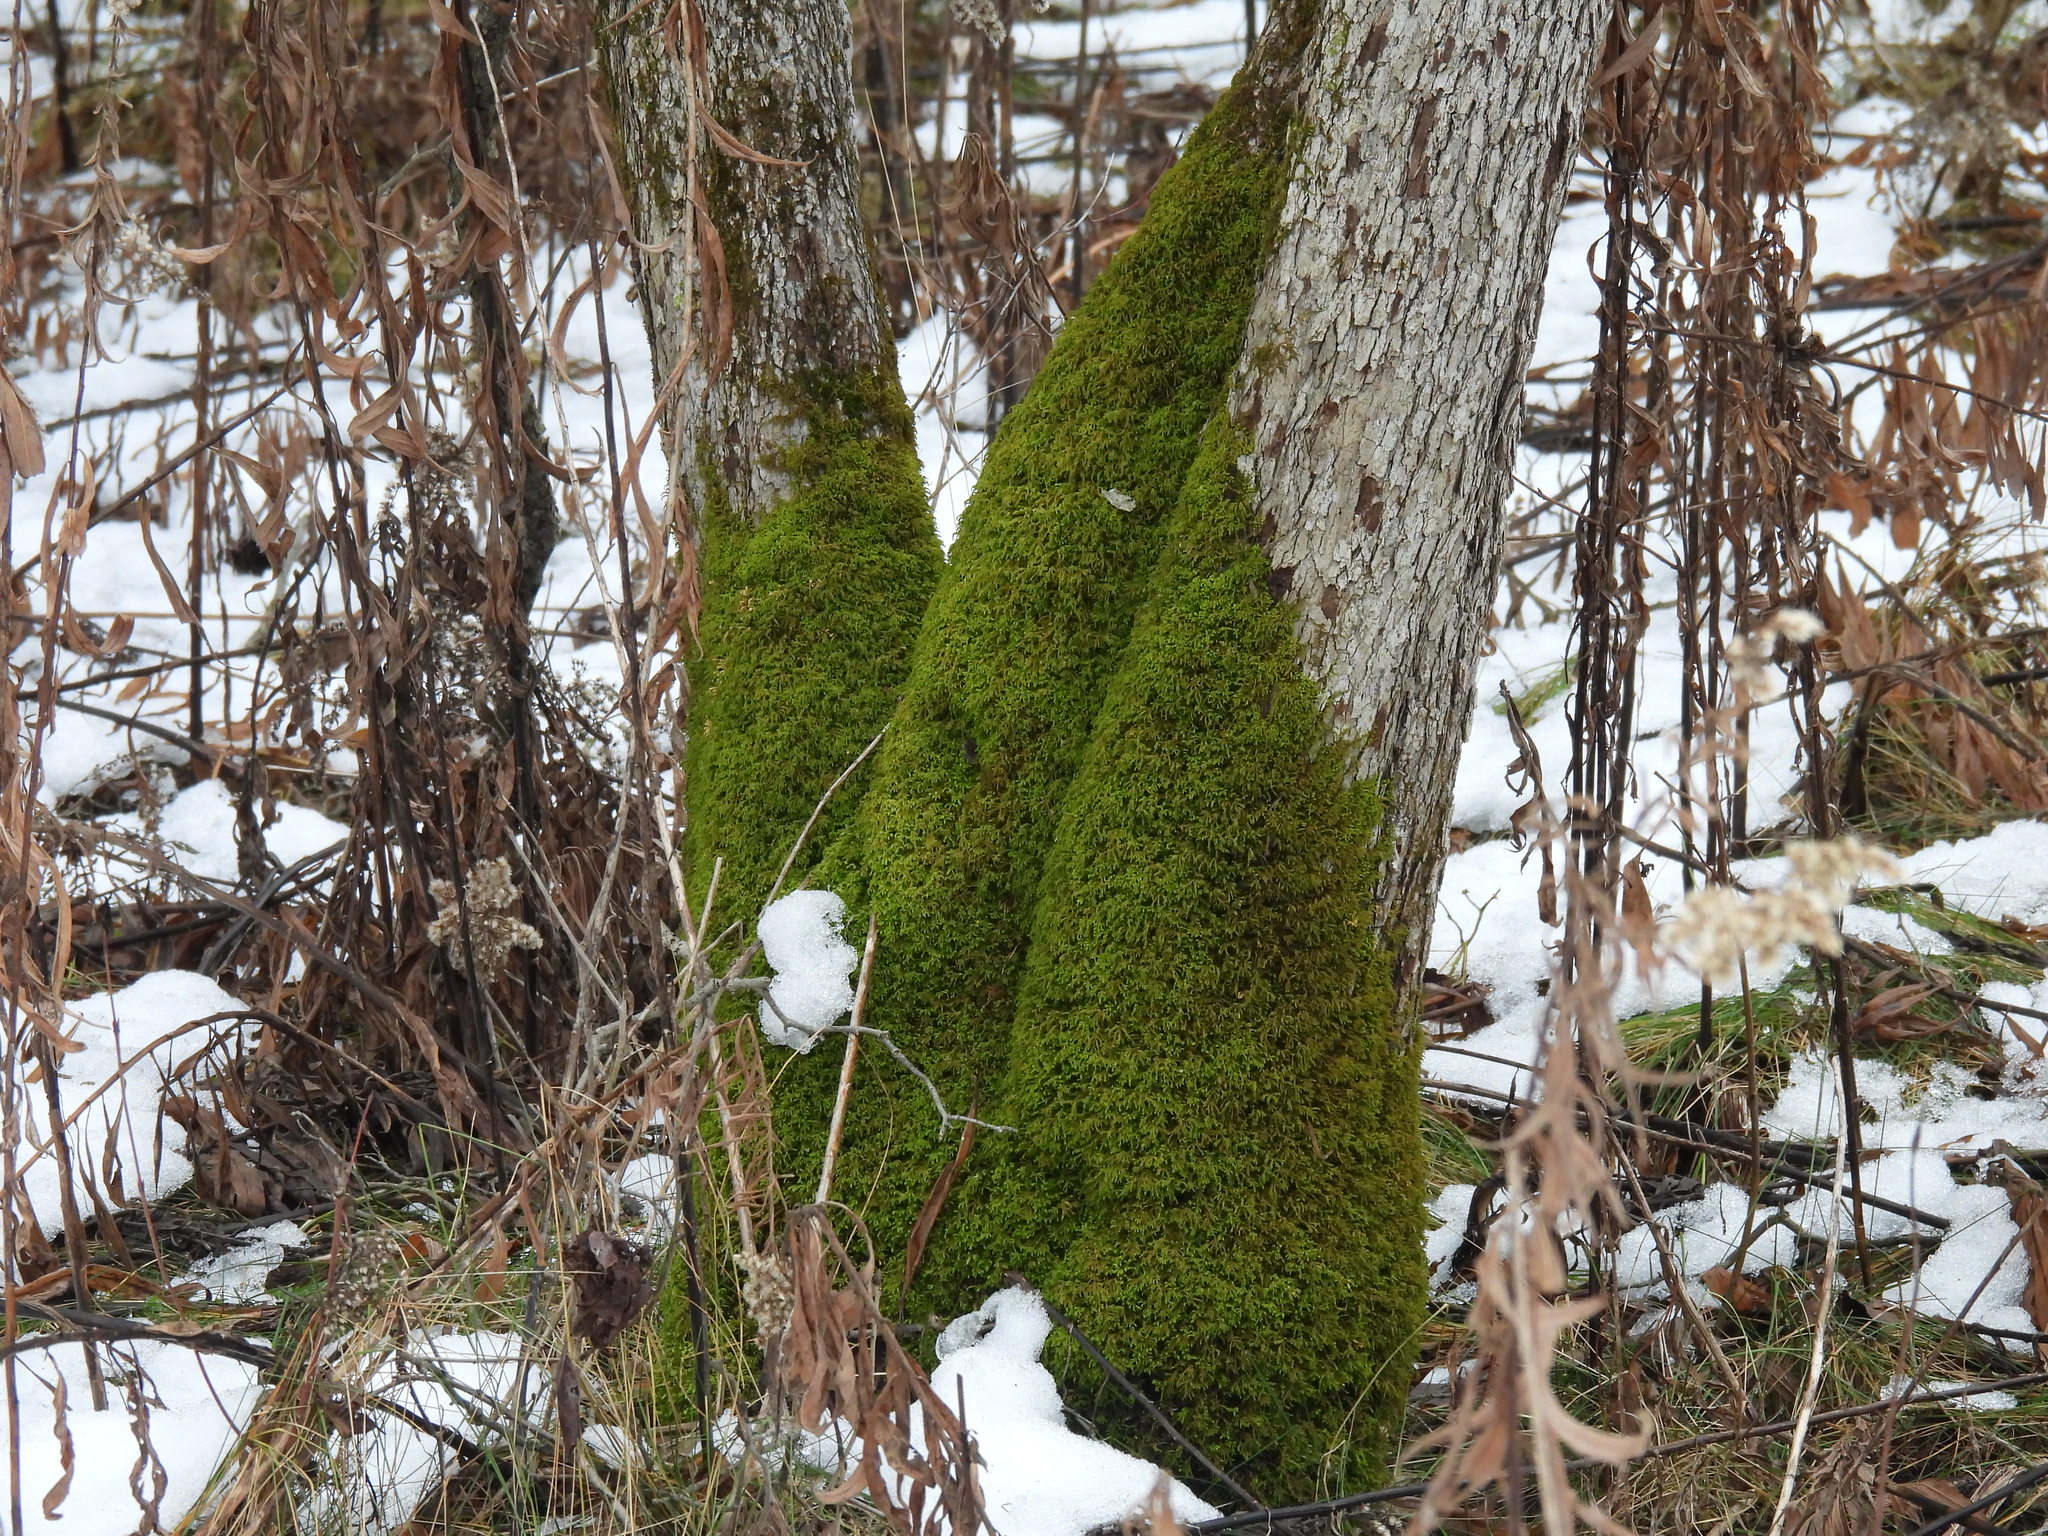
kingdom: Plantae
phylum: Bryophyta
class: Bryopsida
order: Hypnales
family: Neckeraceae
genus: Pseudanomodon
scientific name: Pseudanomodon attenuatus
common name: Tree-skirt moss
